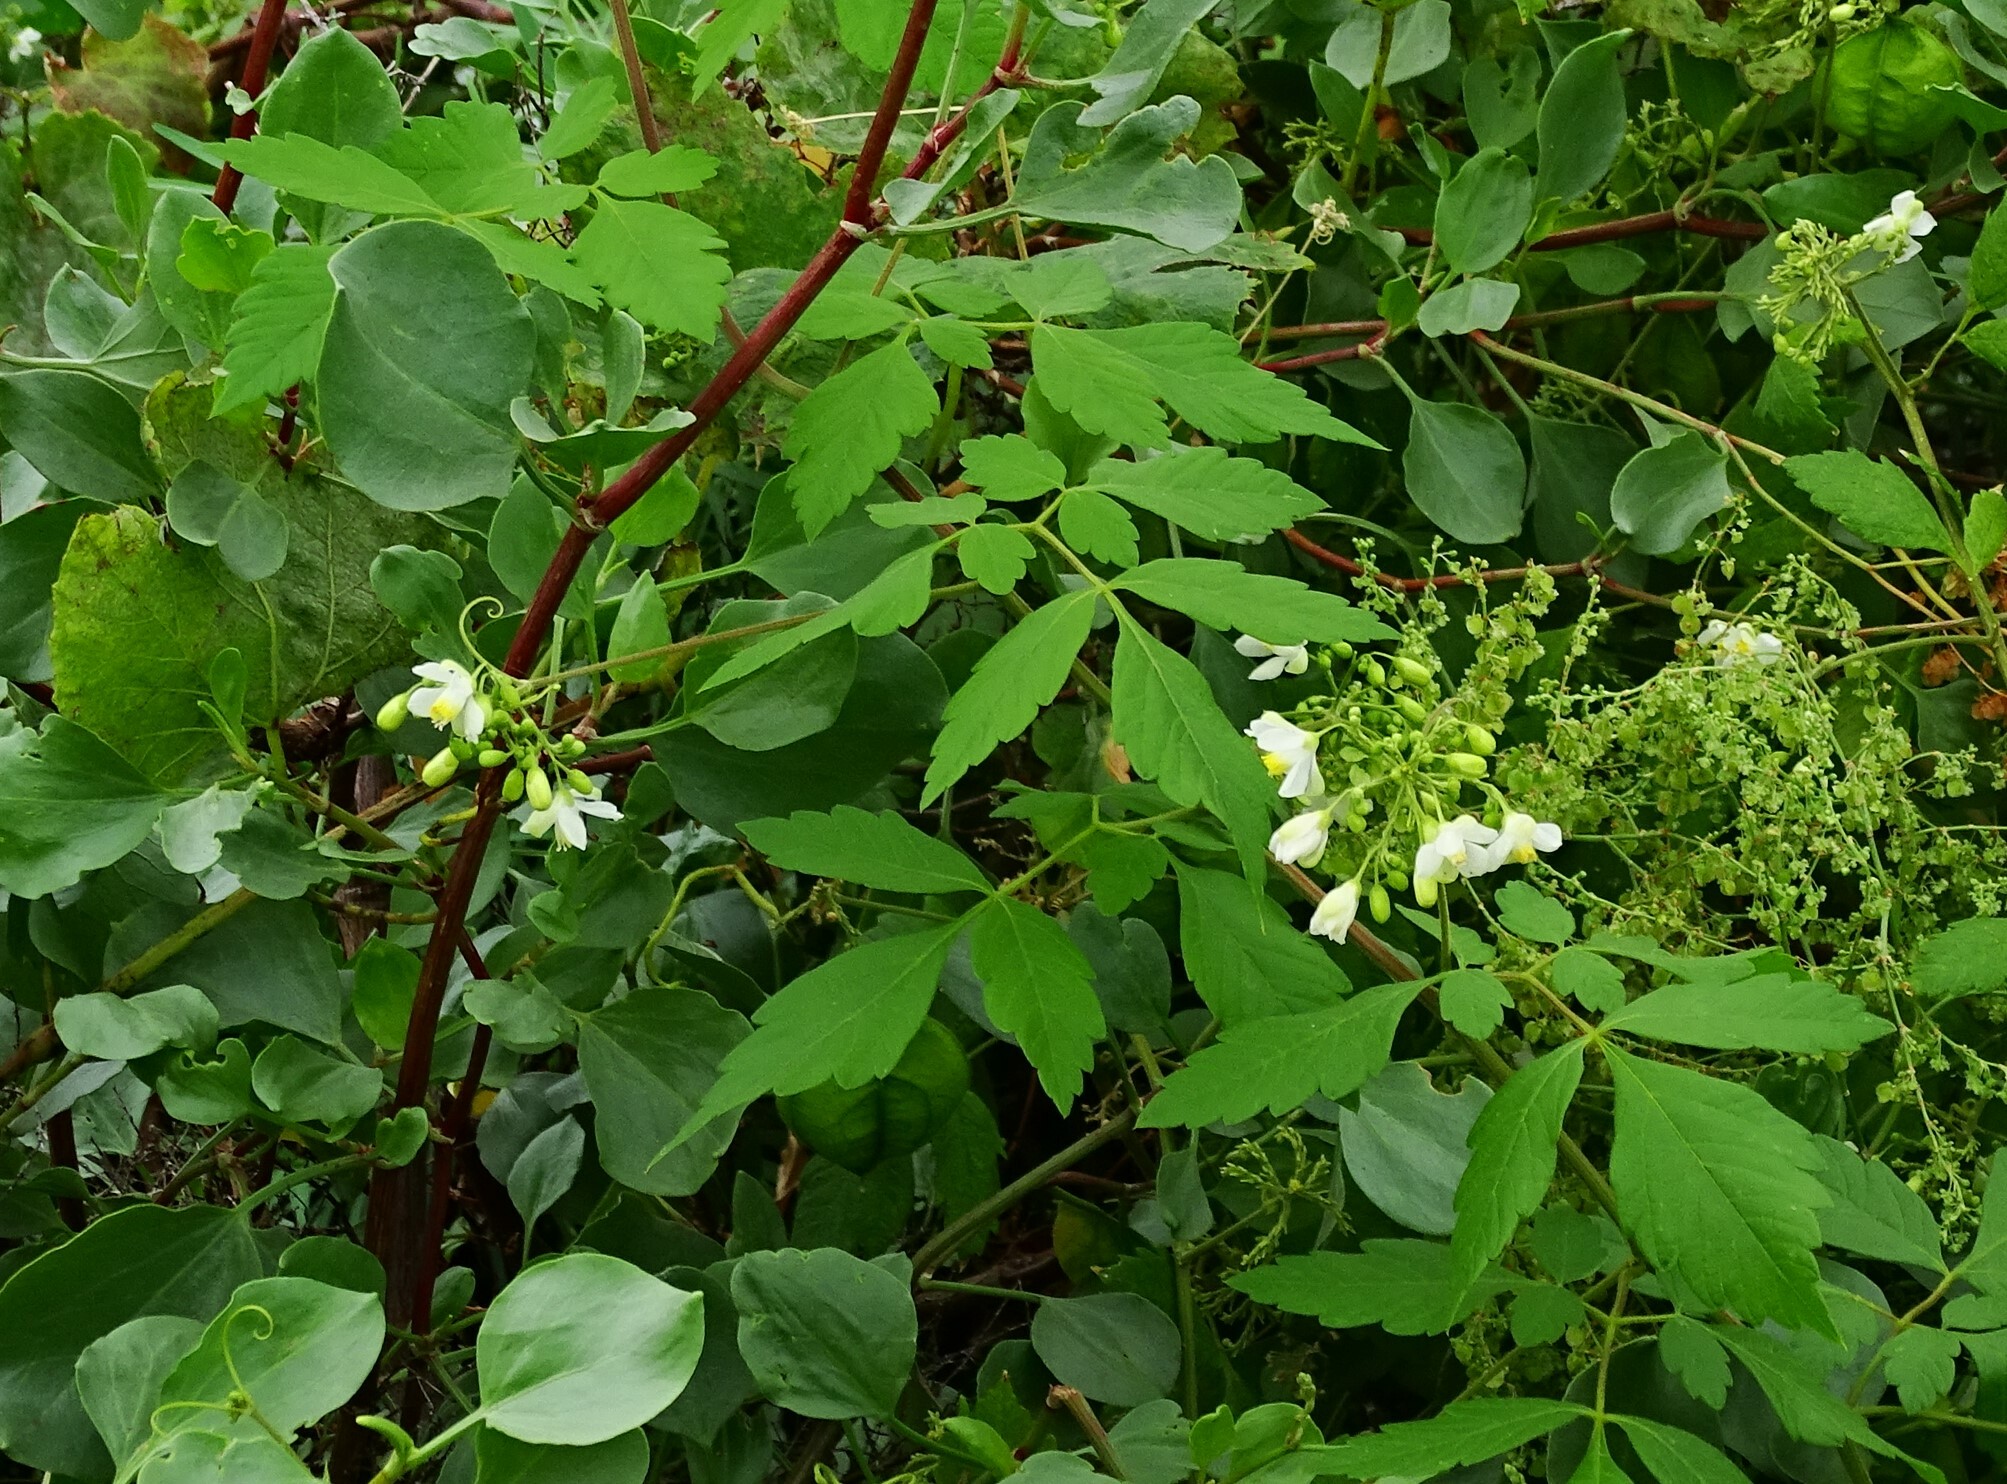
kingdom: Plantae
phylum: Tracheophyta
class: Magnoliopsida
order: Sapindales
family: Sapindaceae
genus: Cardiospermum
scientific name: Cardiospermum grandiflorum
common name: Balloon vine
